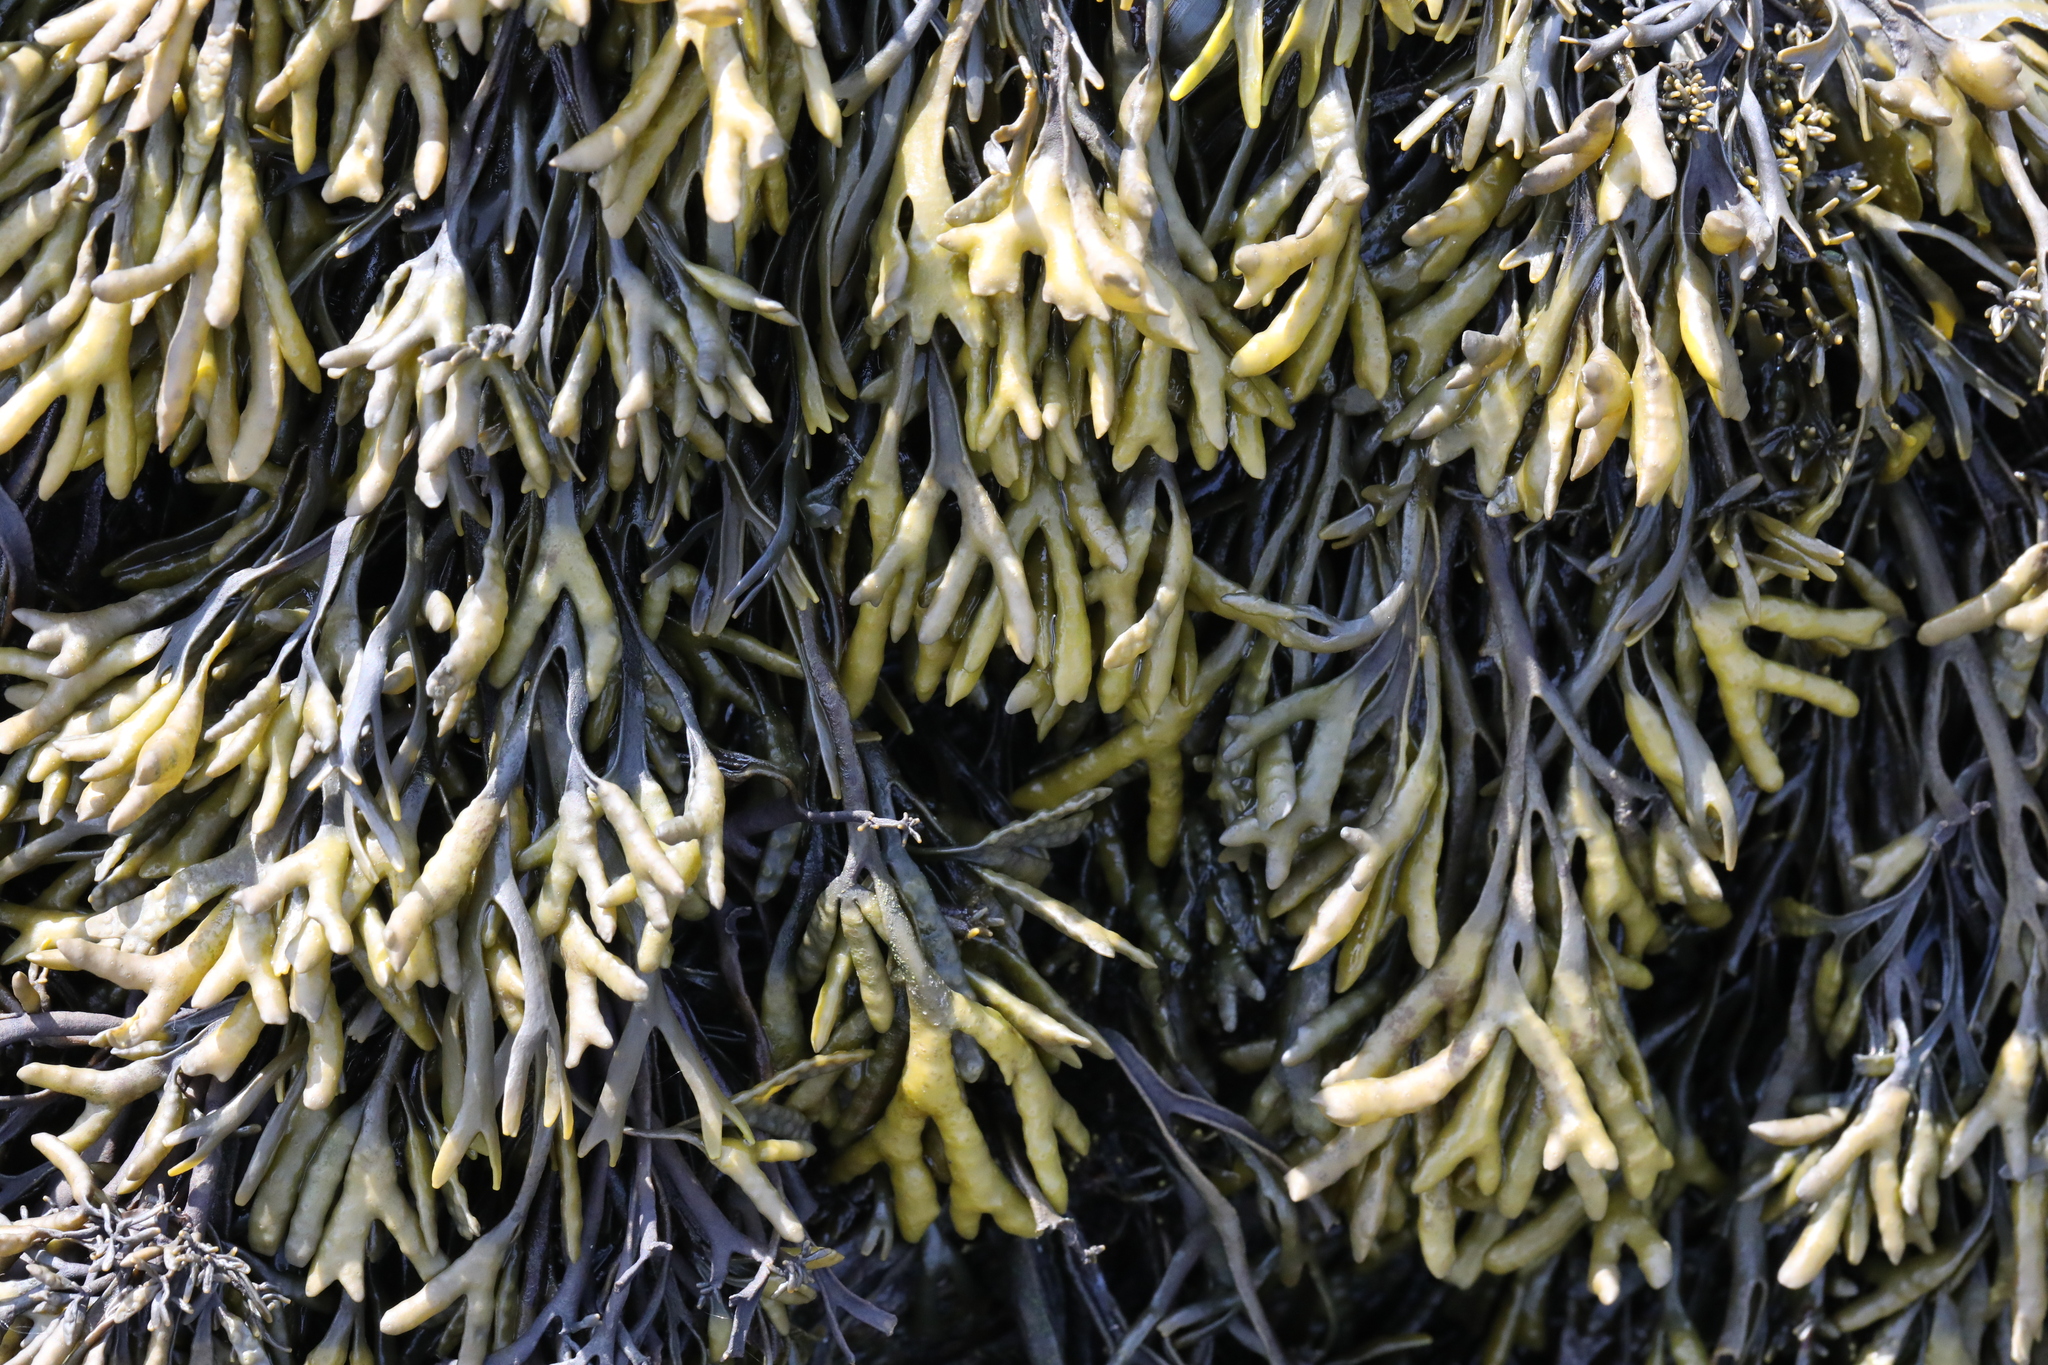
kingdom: Chromista
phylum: Ochrophyta
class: Phaeophyceae
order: Fucales
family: Fucaceae
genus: Pelvetia
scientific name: Pelvetia canaliculata
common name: Channelled wrack
